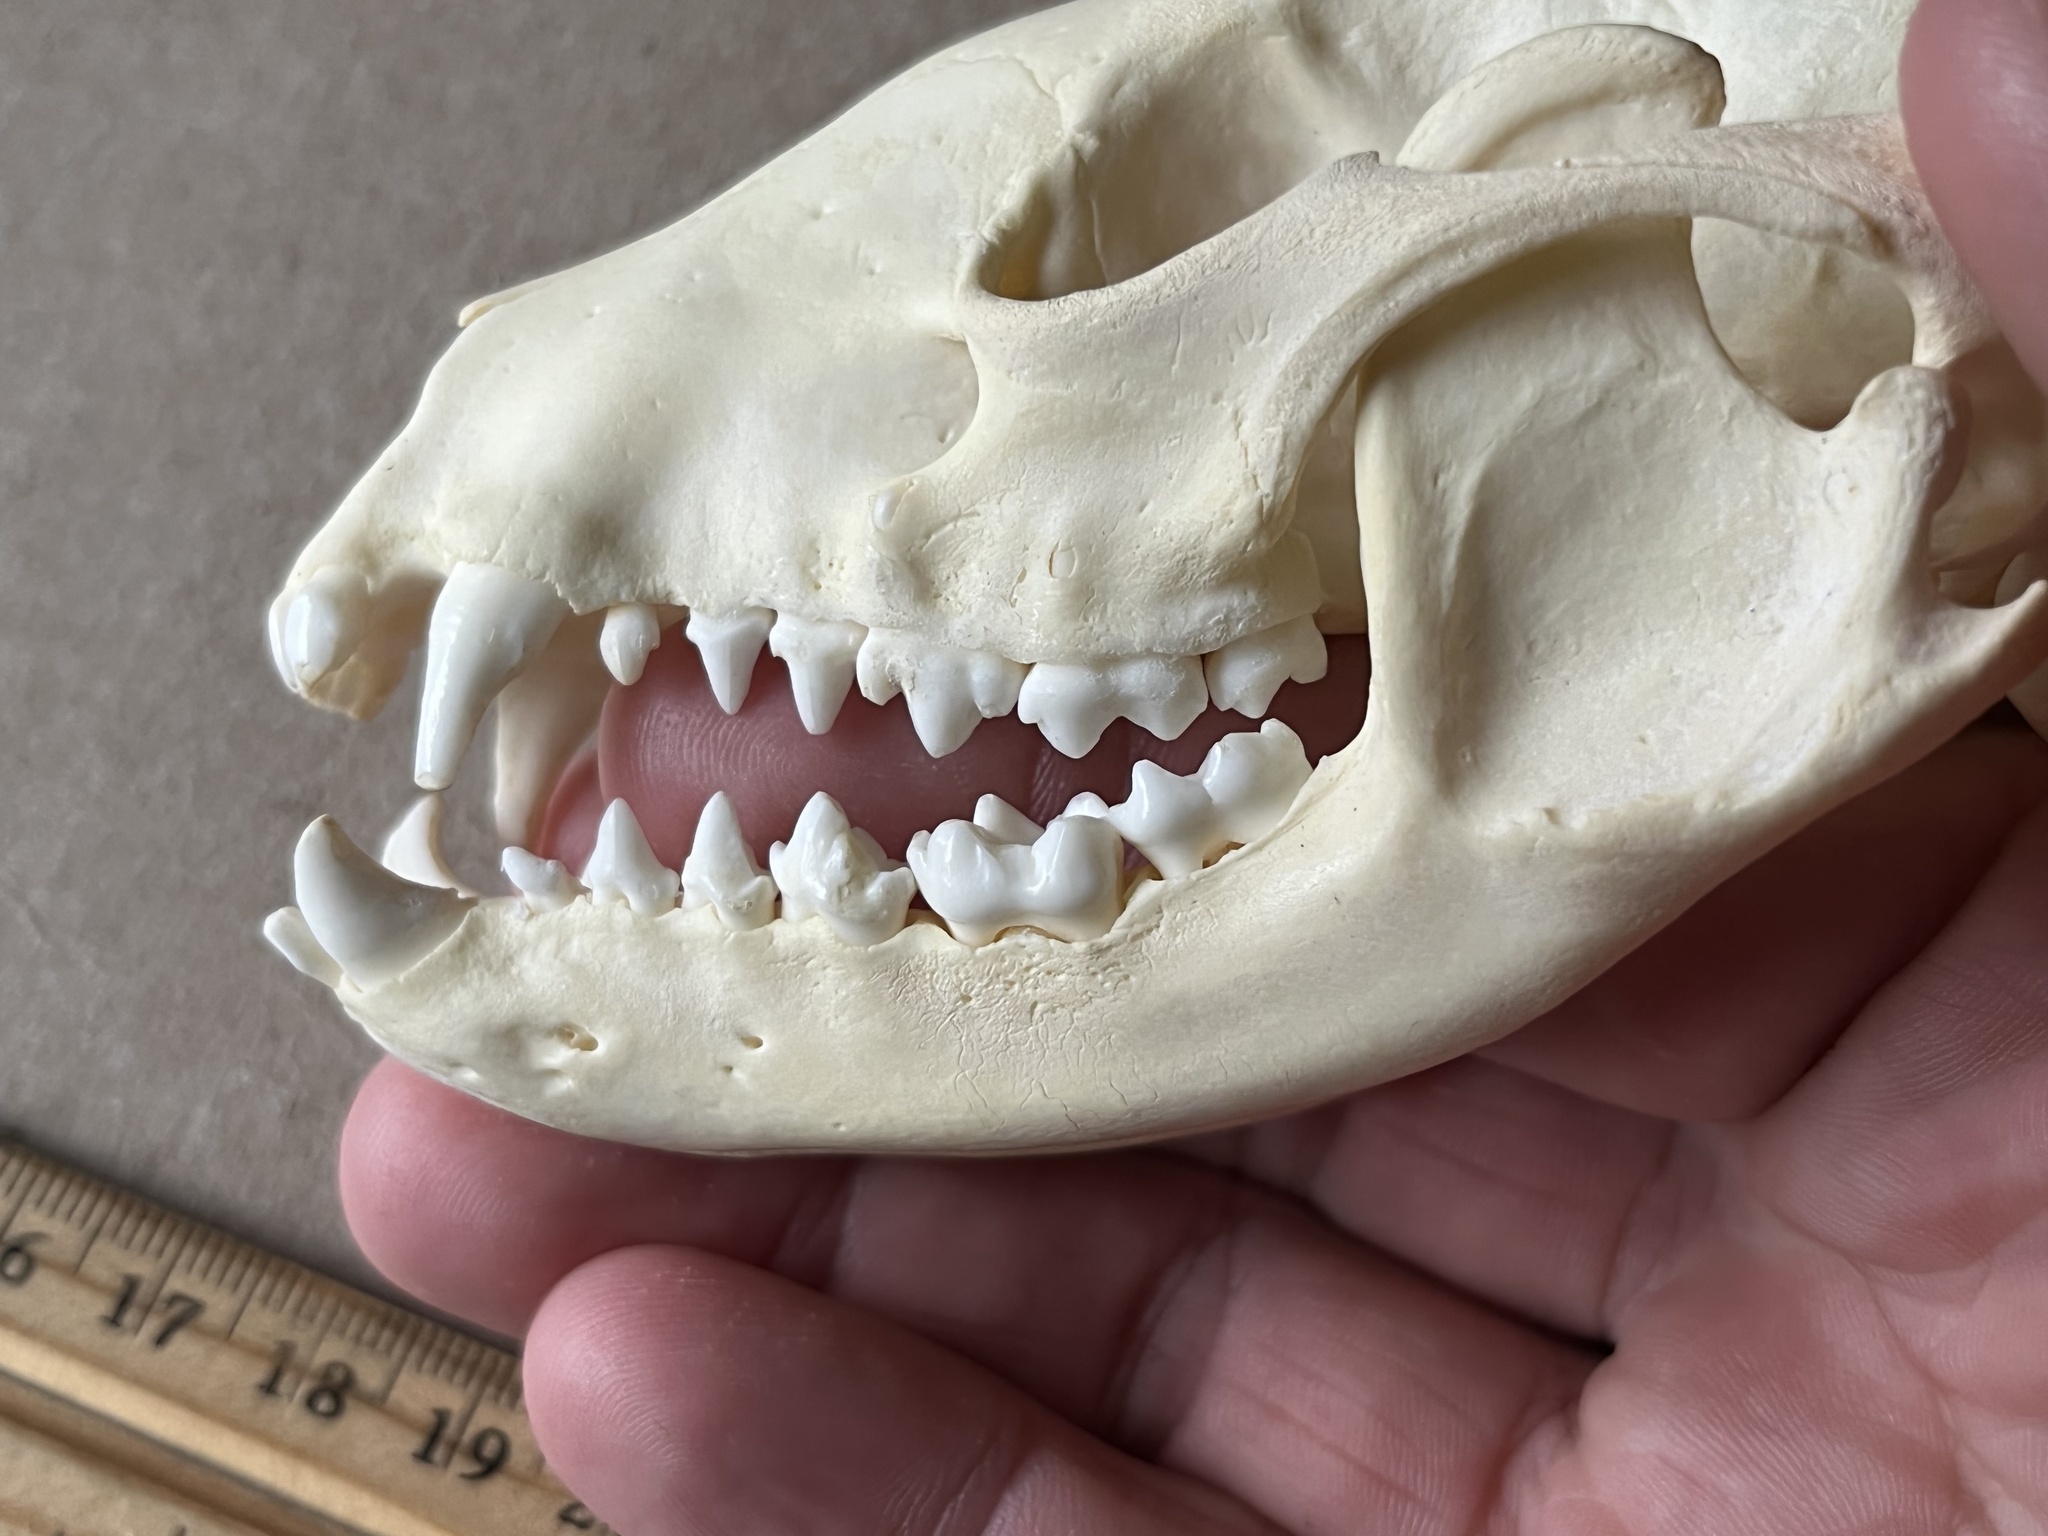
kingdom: Animalia
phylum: Chordata
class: Mammalia
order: Carnivora
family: Procyonidae
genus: Procyon
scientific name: Procyon lotor
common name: Raccoon
